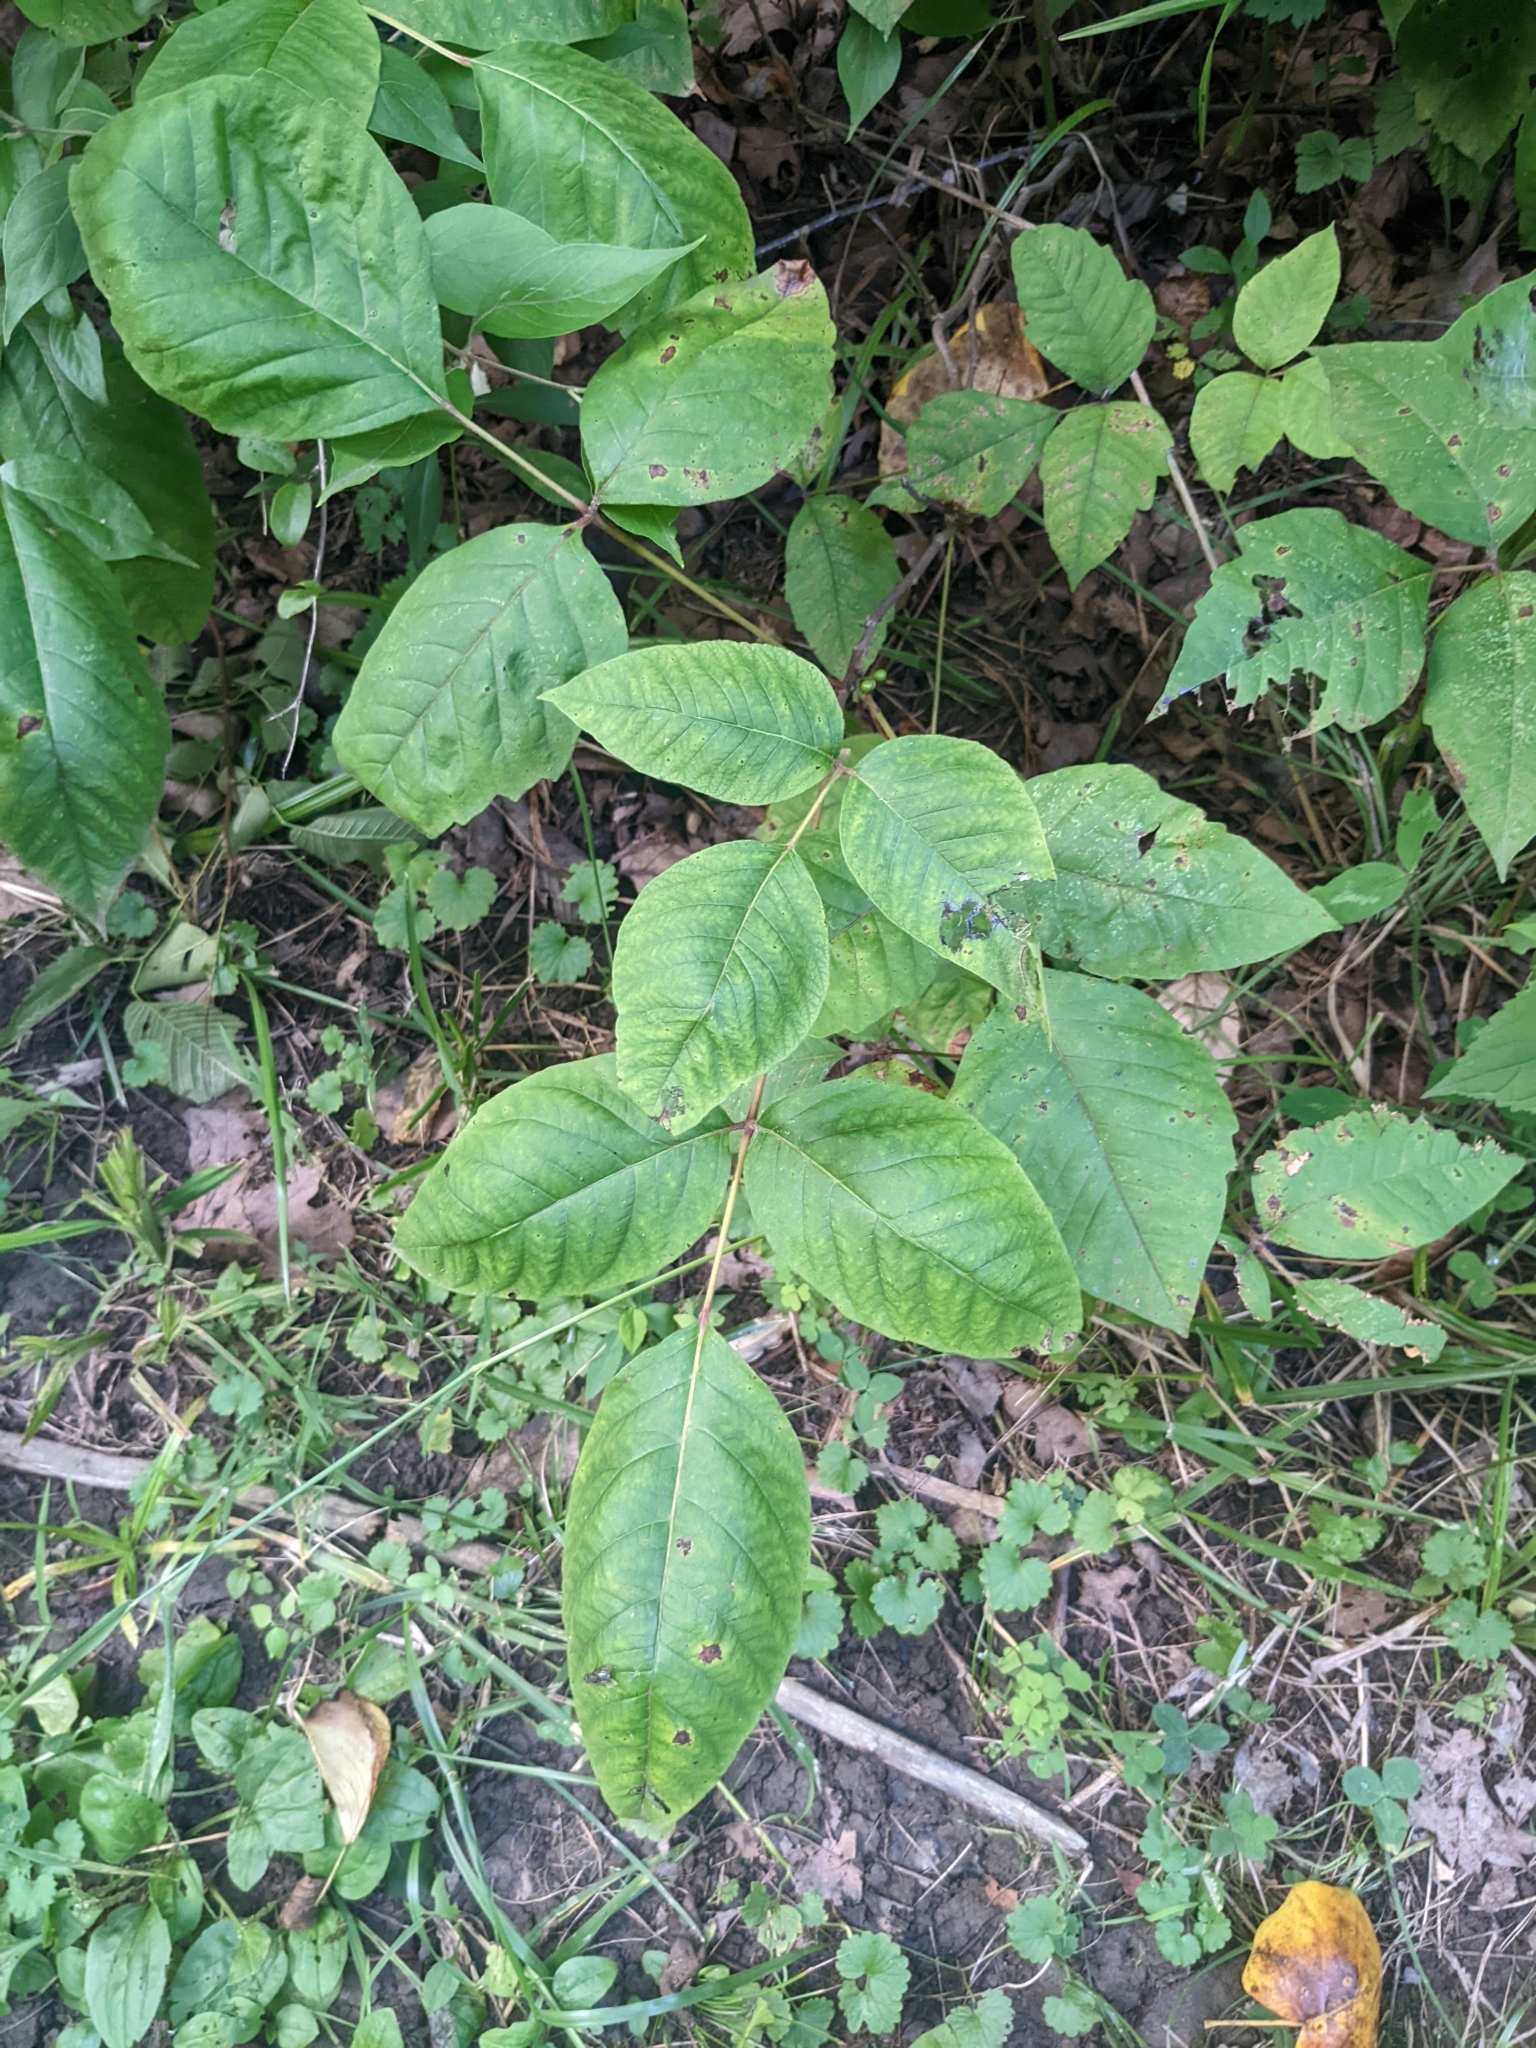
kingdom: Plantae
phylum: Tracheophyta
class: Magnoliopsida
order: Sapindales
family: Anacardiaceae
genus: Toxicodendron
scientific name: Toxicodendron radicans
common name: Poison ivy
